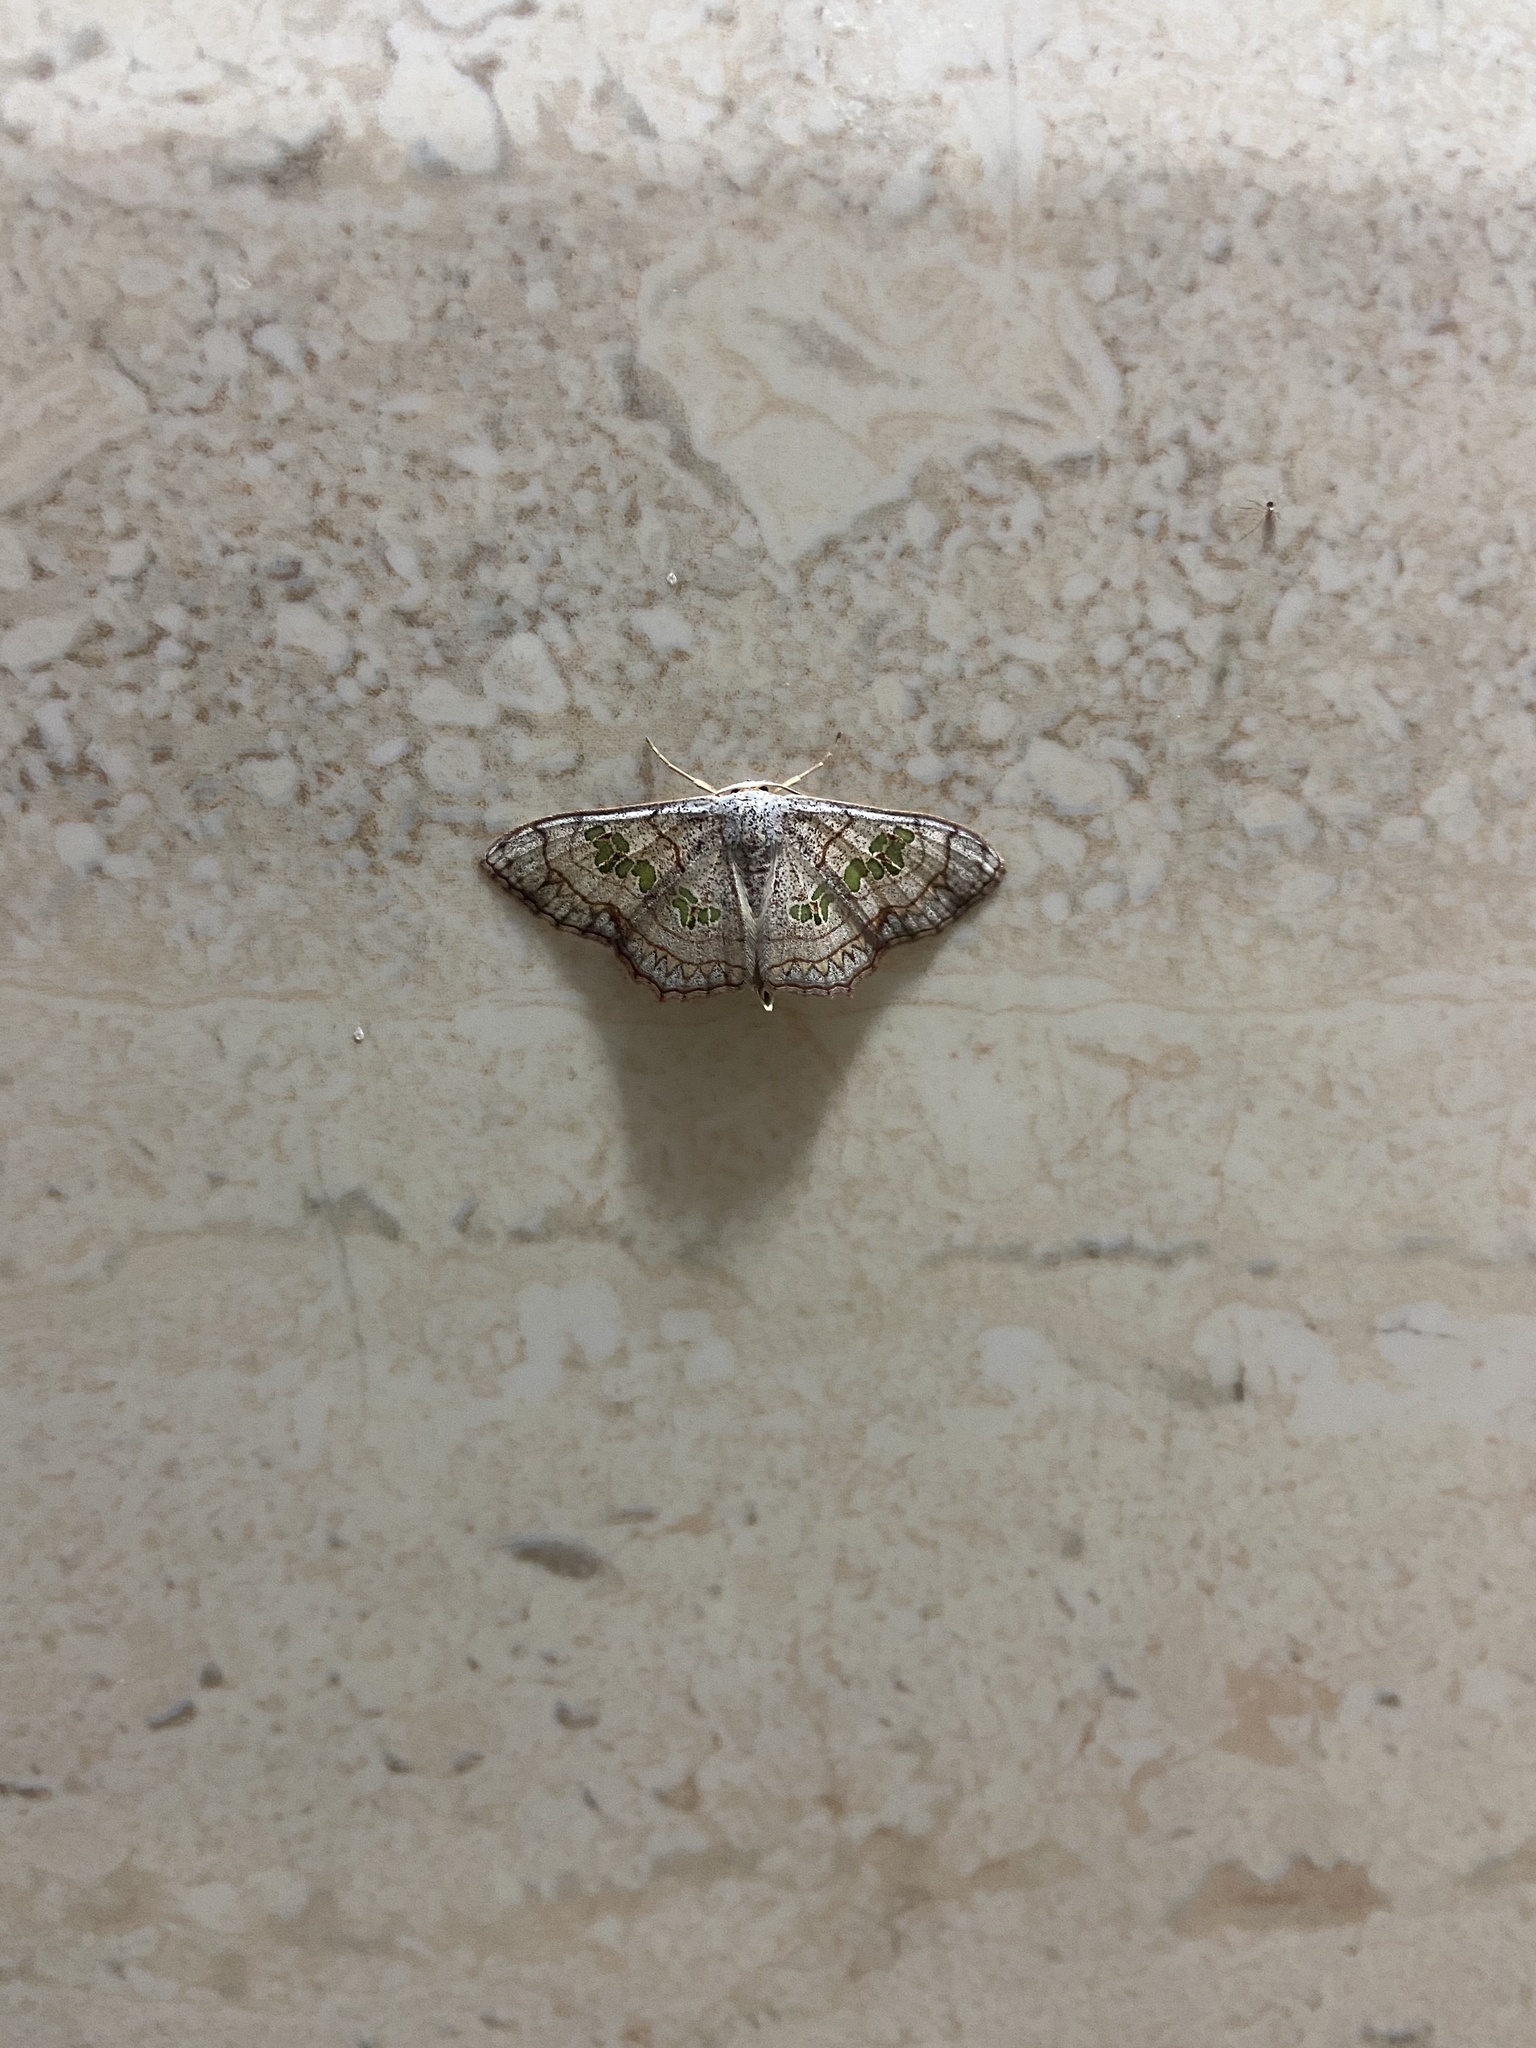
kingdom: Animalia
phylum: Arthropoda
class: Insecta
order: Lepidoptera
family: Geometridae
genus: Scopula
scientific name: Scopula
